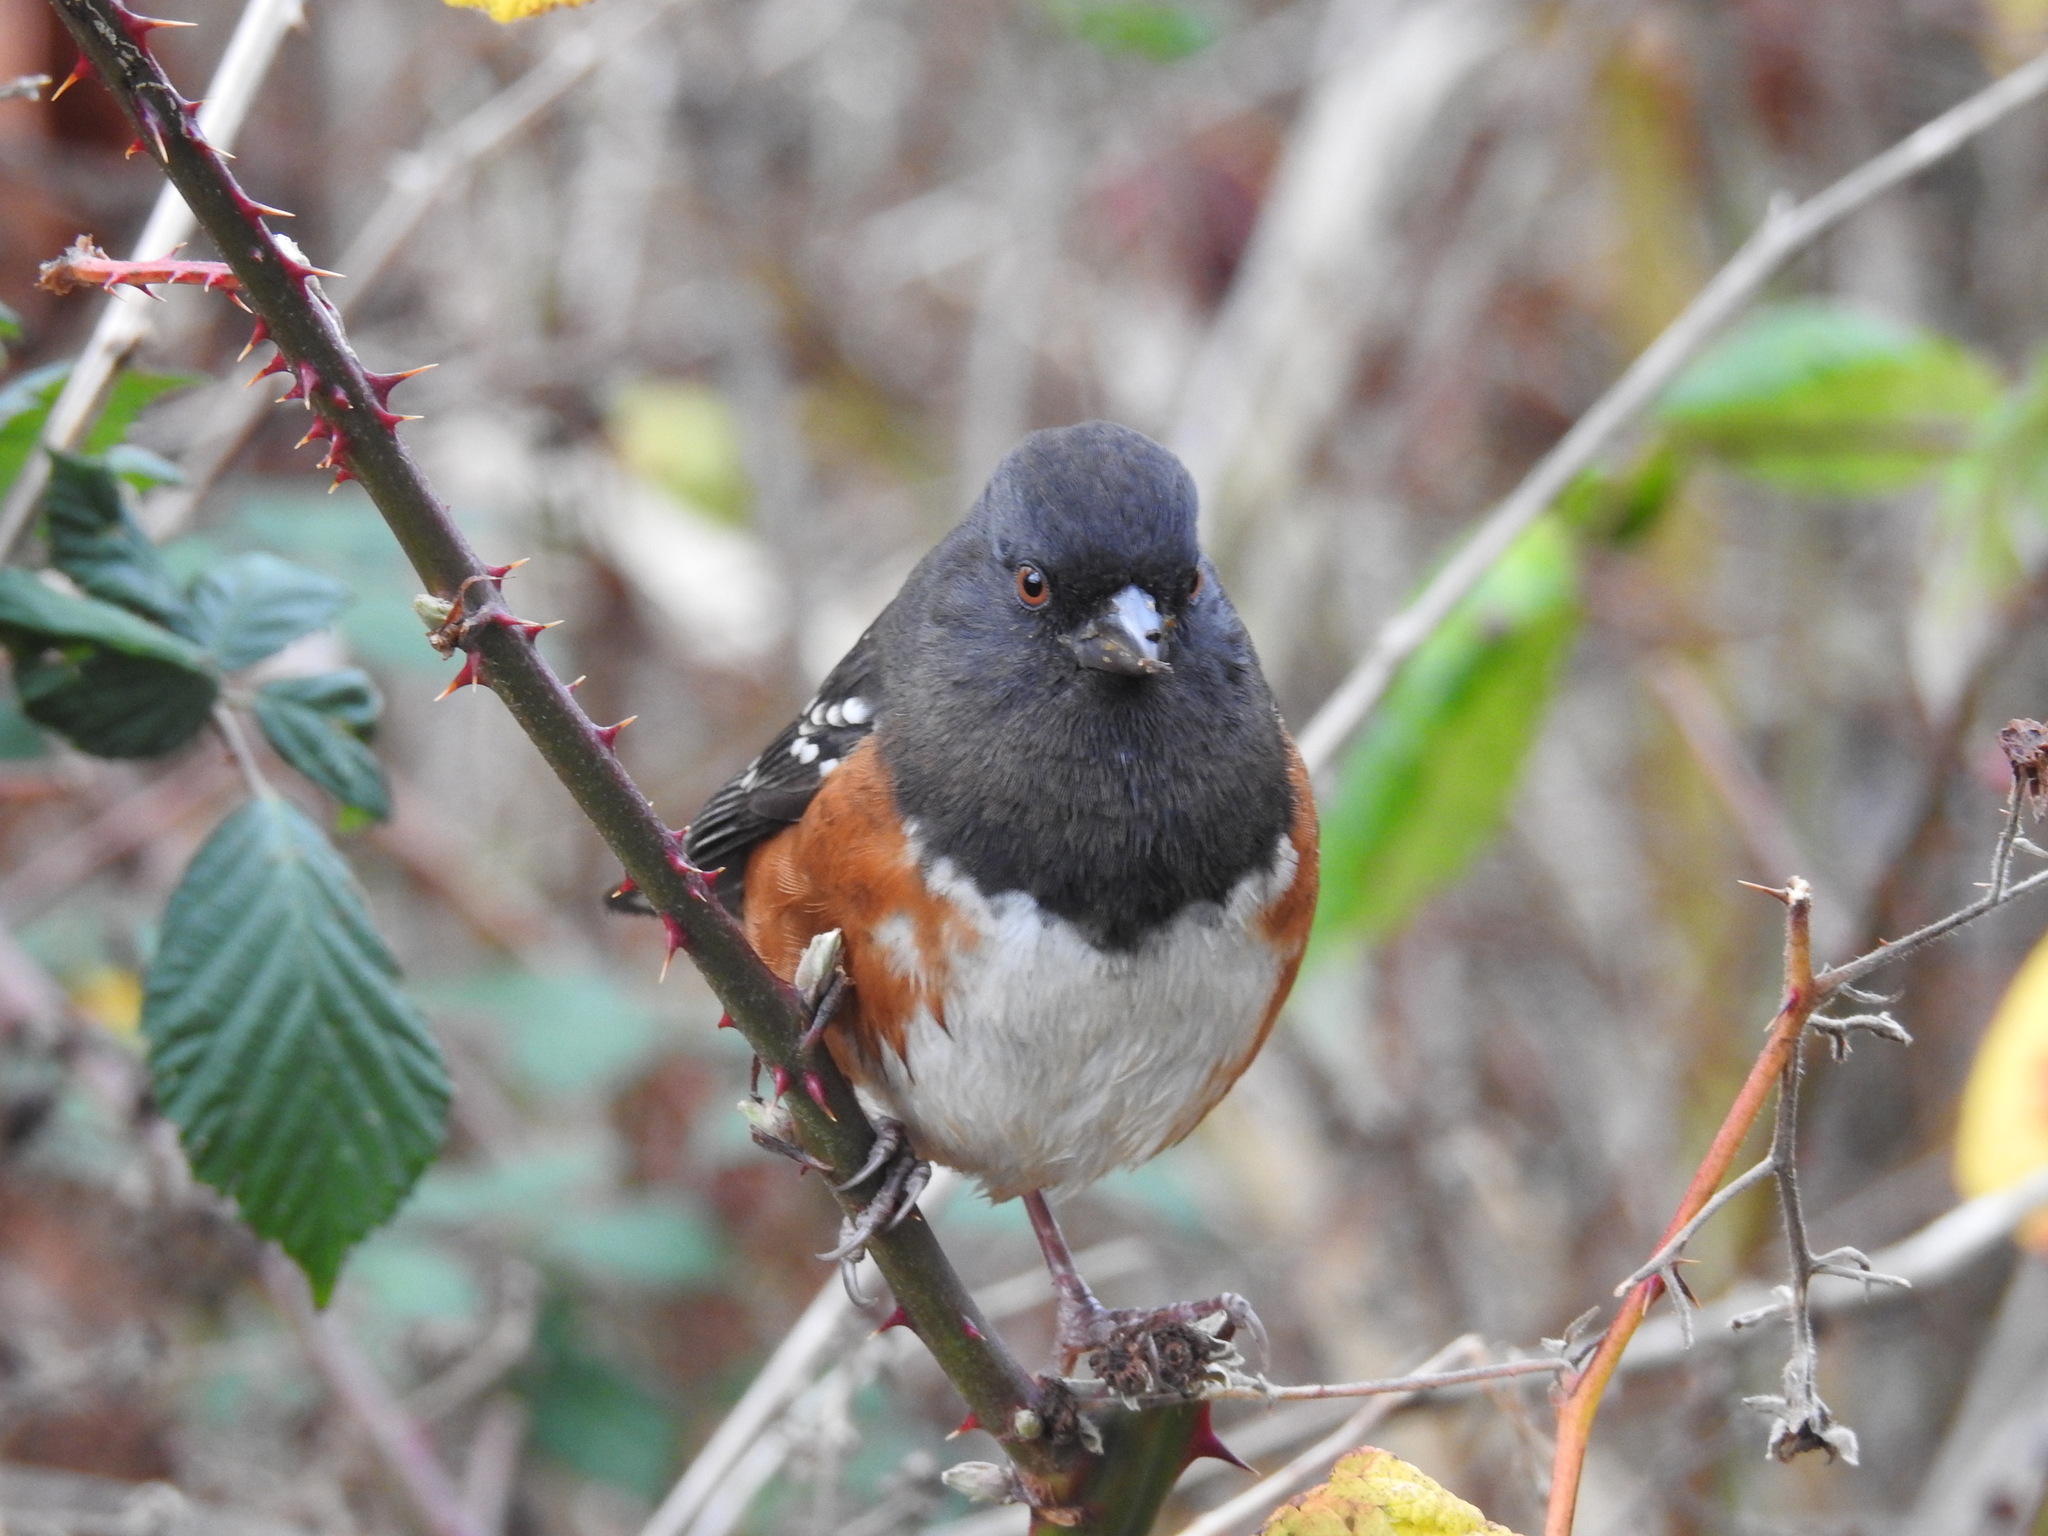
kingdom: Animalia
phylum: Chordata
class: Aves
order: Passeriformes
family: Passerellidae
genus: Pipilo
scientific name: Pipilo maculatus
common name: Spotted towhee
